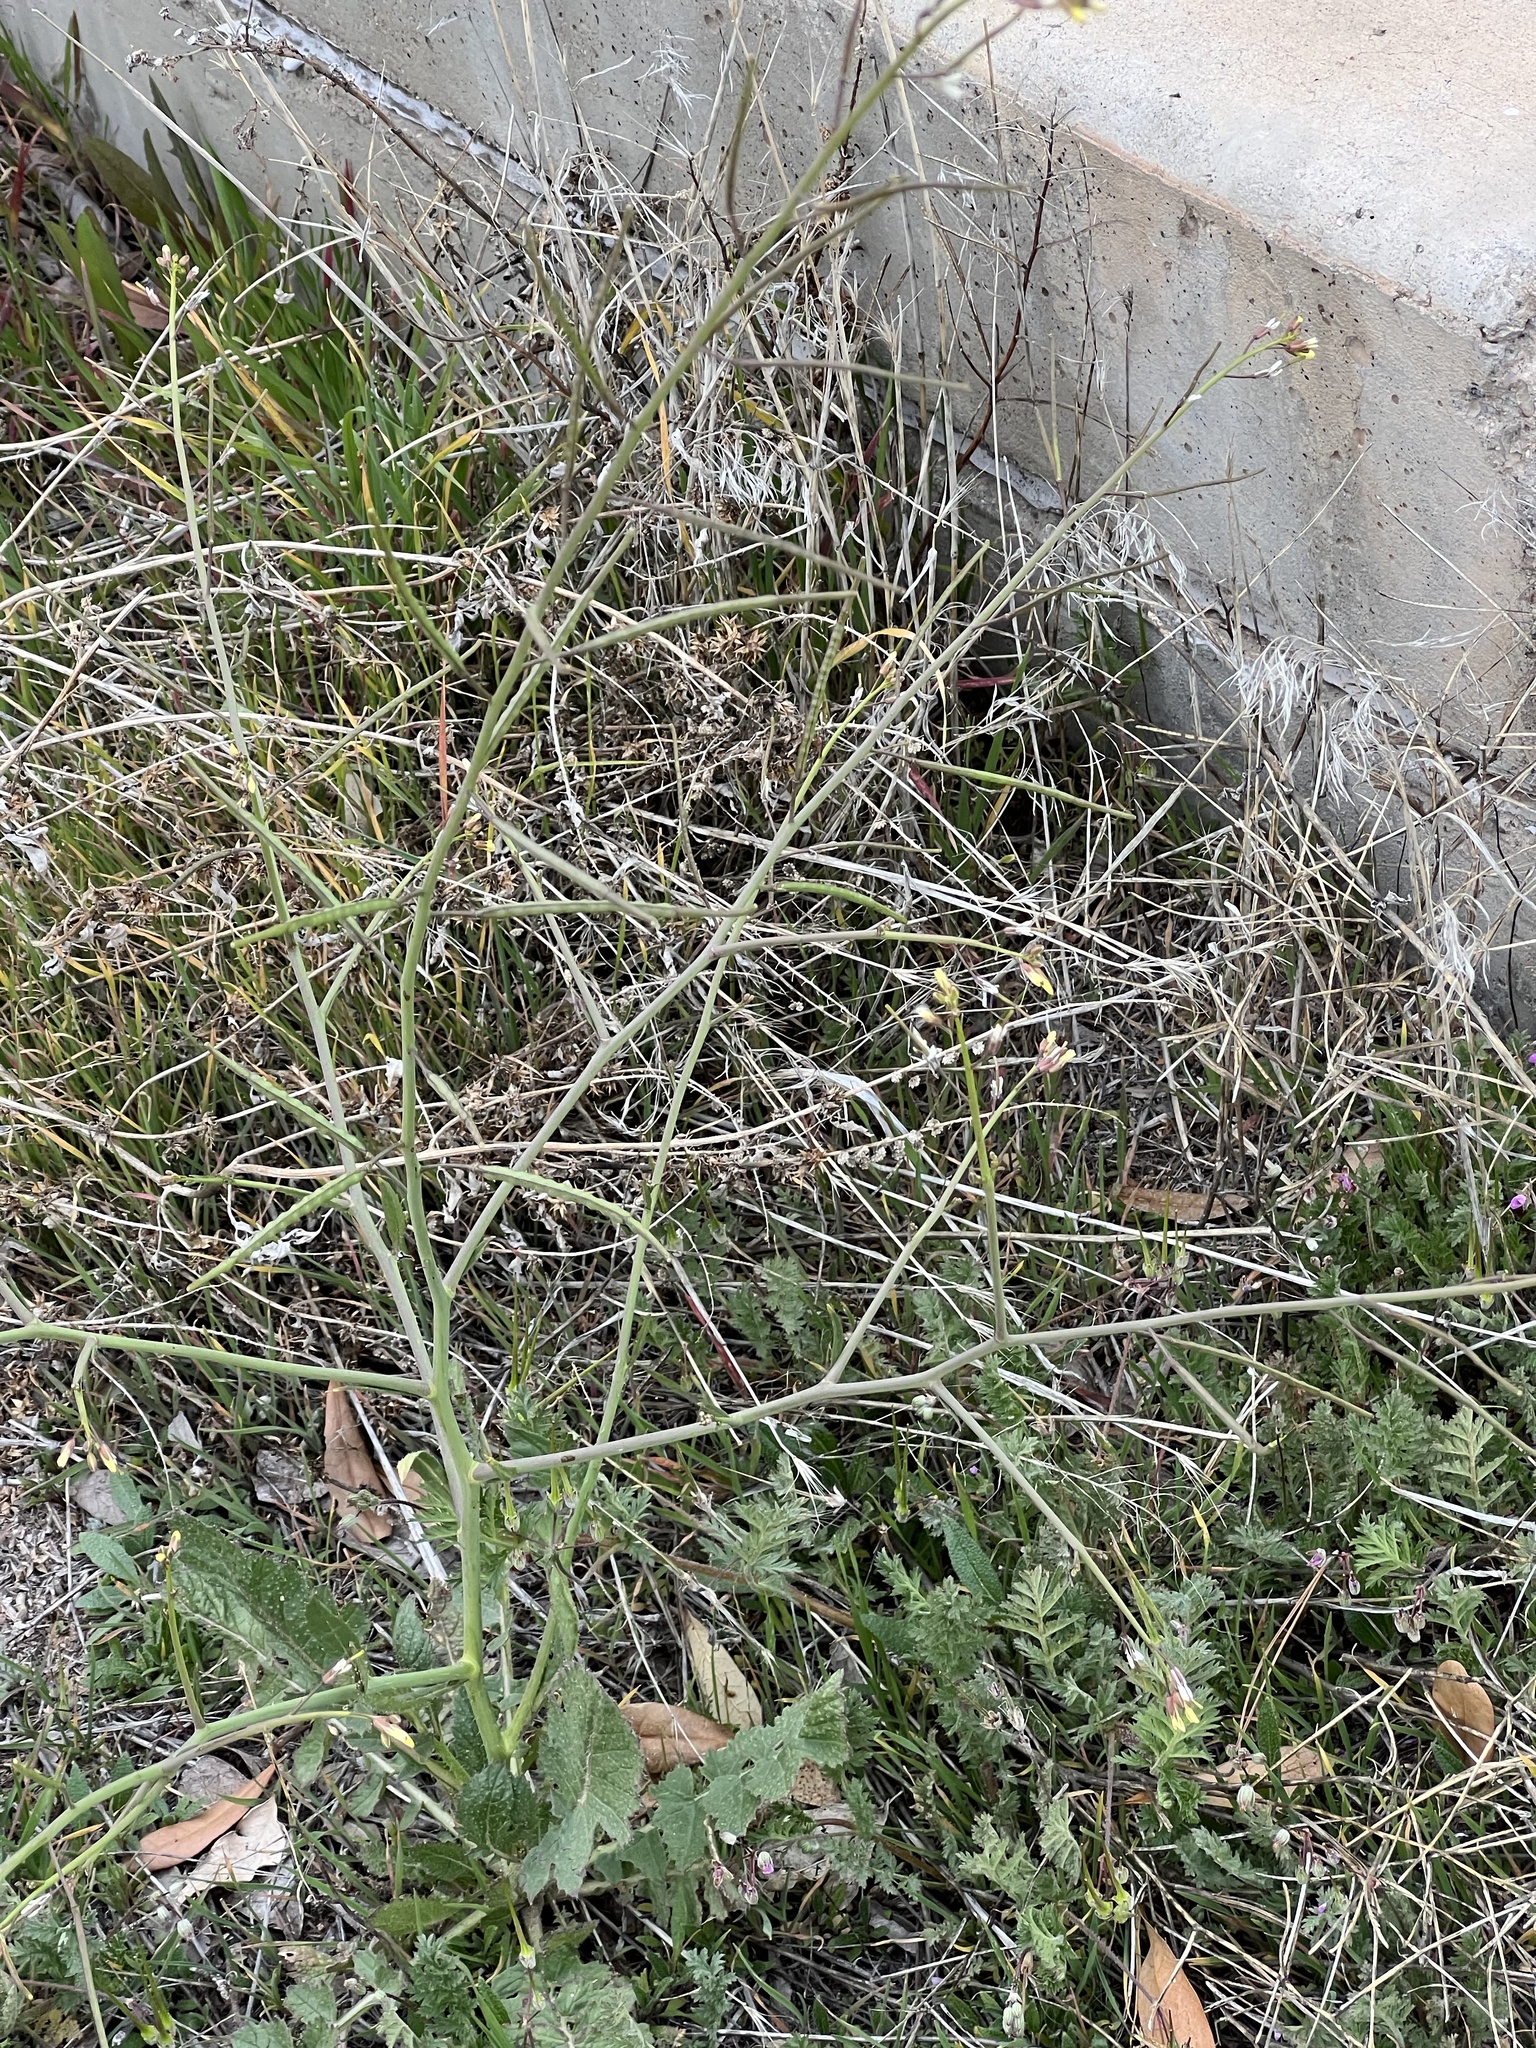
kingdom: Plantae
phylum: Tracheophyta
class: Magnoliopsida
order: Brassicales
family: Brassicaceae
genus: Brassica
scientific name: Brassica tournefortii
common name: Pale cabbage
